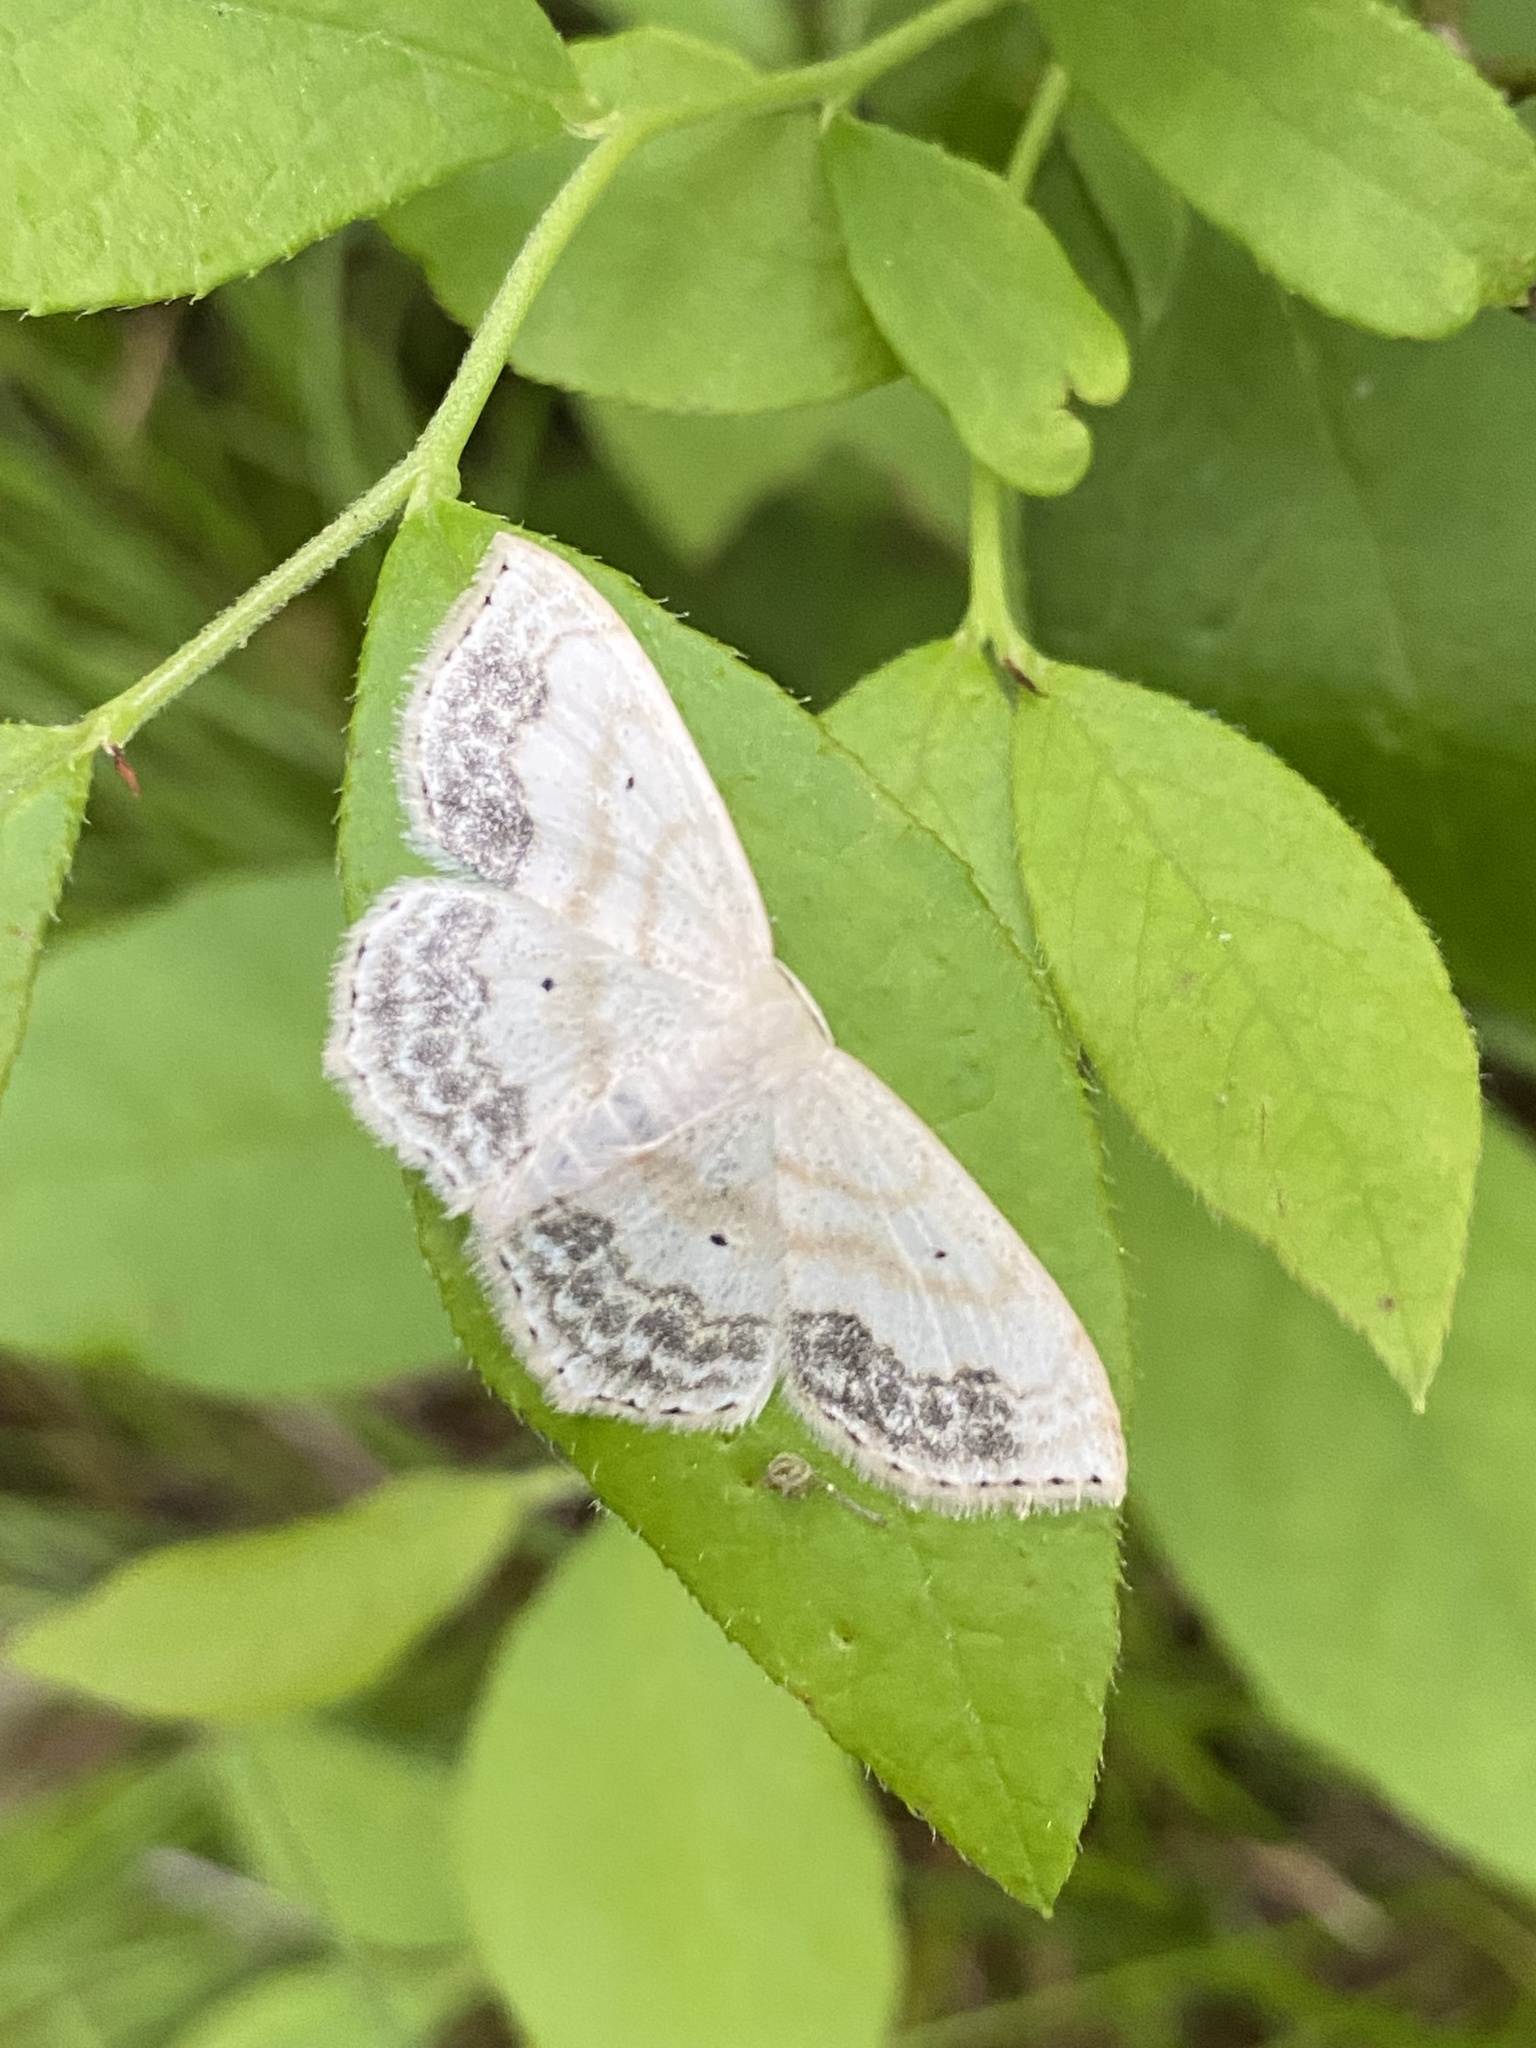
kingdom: Animalia
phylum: Arthropoda
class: Insecta
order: Lepidoptera
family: Geometridae
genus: Scopula
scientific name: Scopula limboundata
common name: Large lace border
